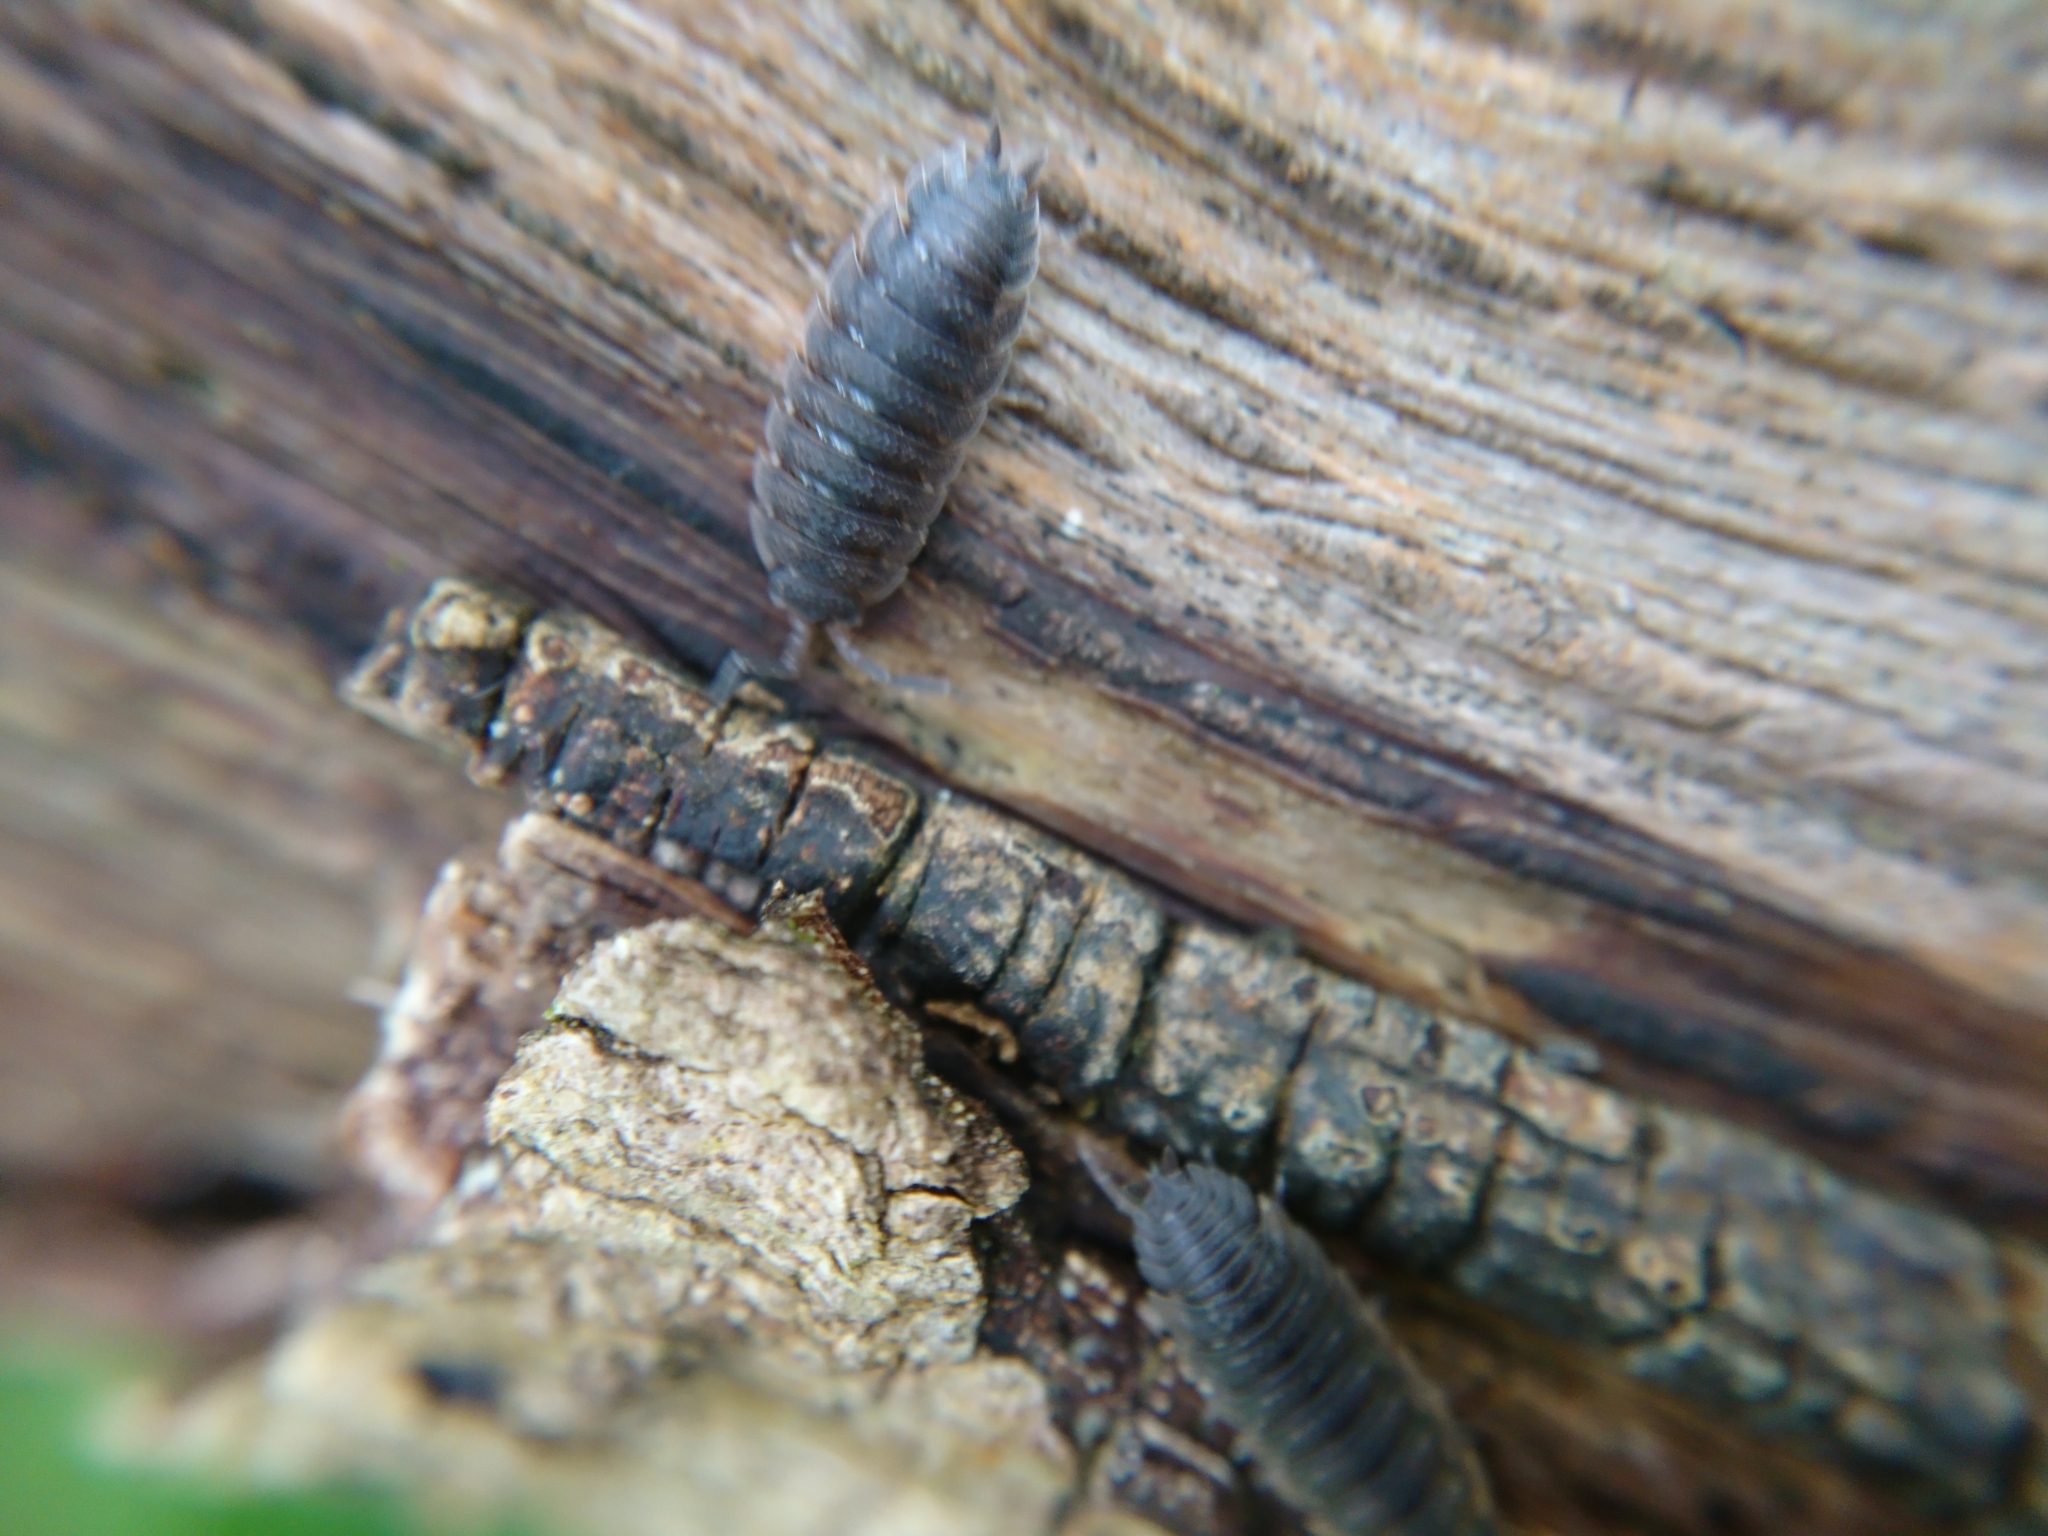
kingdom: Animalia
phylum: Arthropoda
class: Malacostraca
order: Isopoda
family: Porcellionidae
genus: Porcellio
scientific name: Porcellio scaber
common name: Common rough woodlouse
